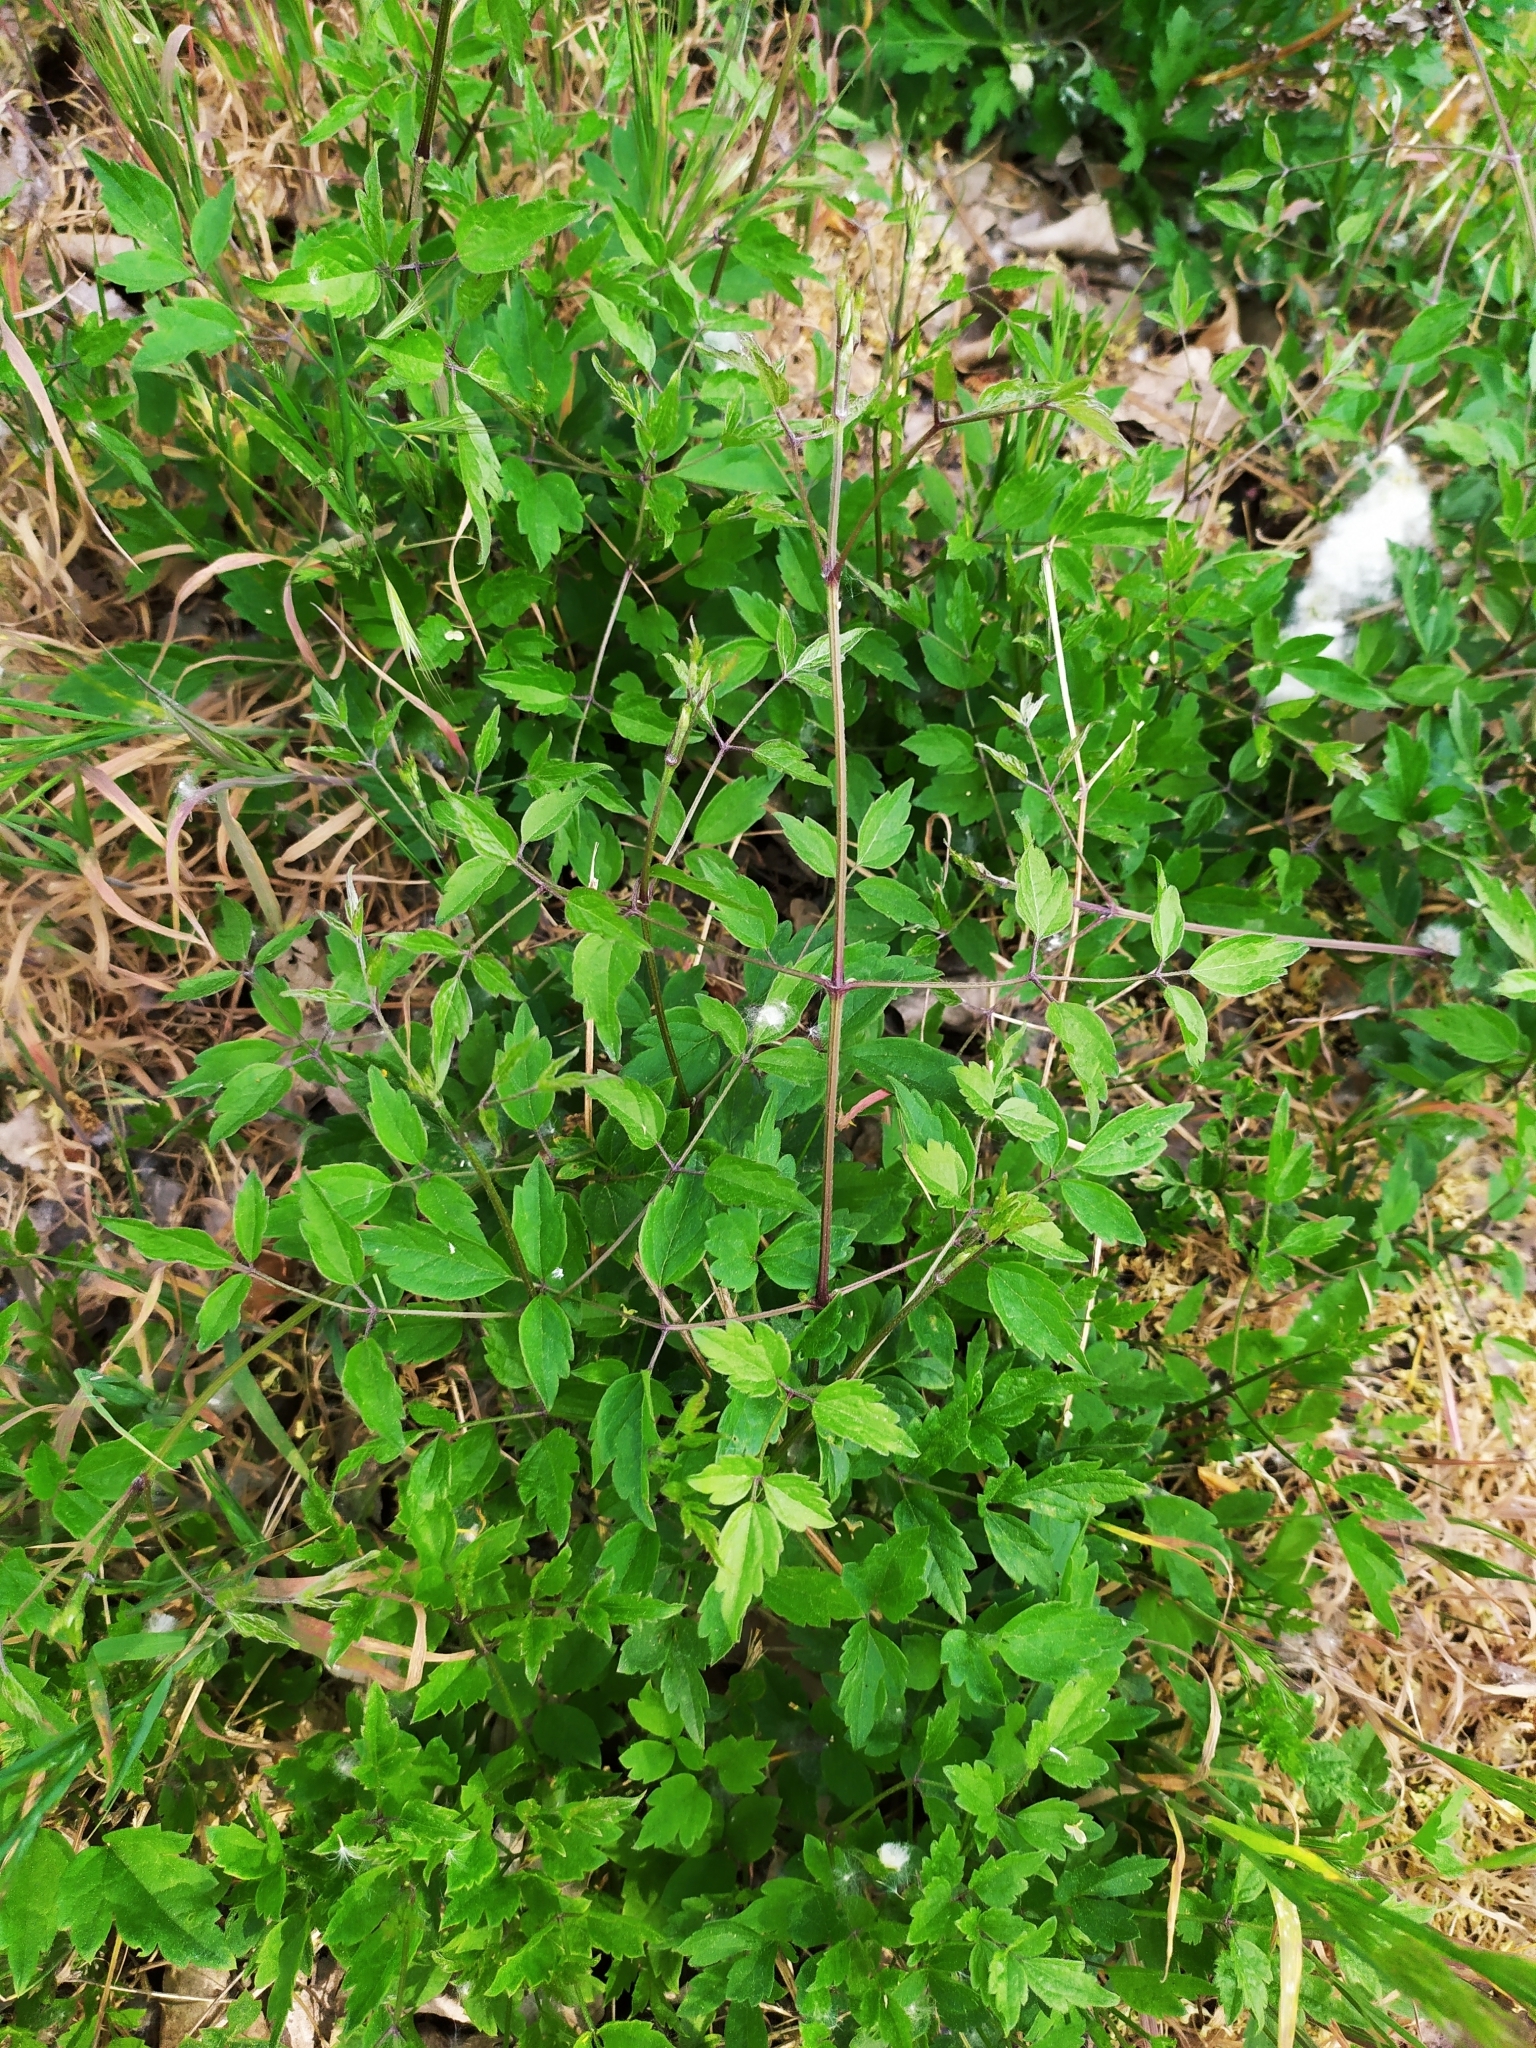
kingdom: Plantae
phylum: Tracheophyta
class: Magnoliopsida
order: Ranunculales
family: Ranunculaceae
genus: Clematis
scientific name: Clematis vitalba
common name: Evergreen clematis
